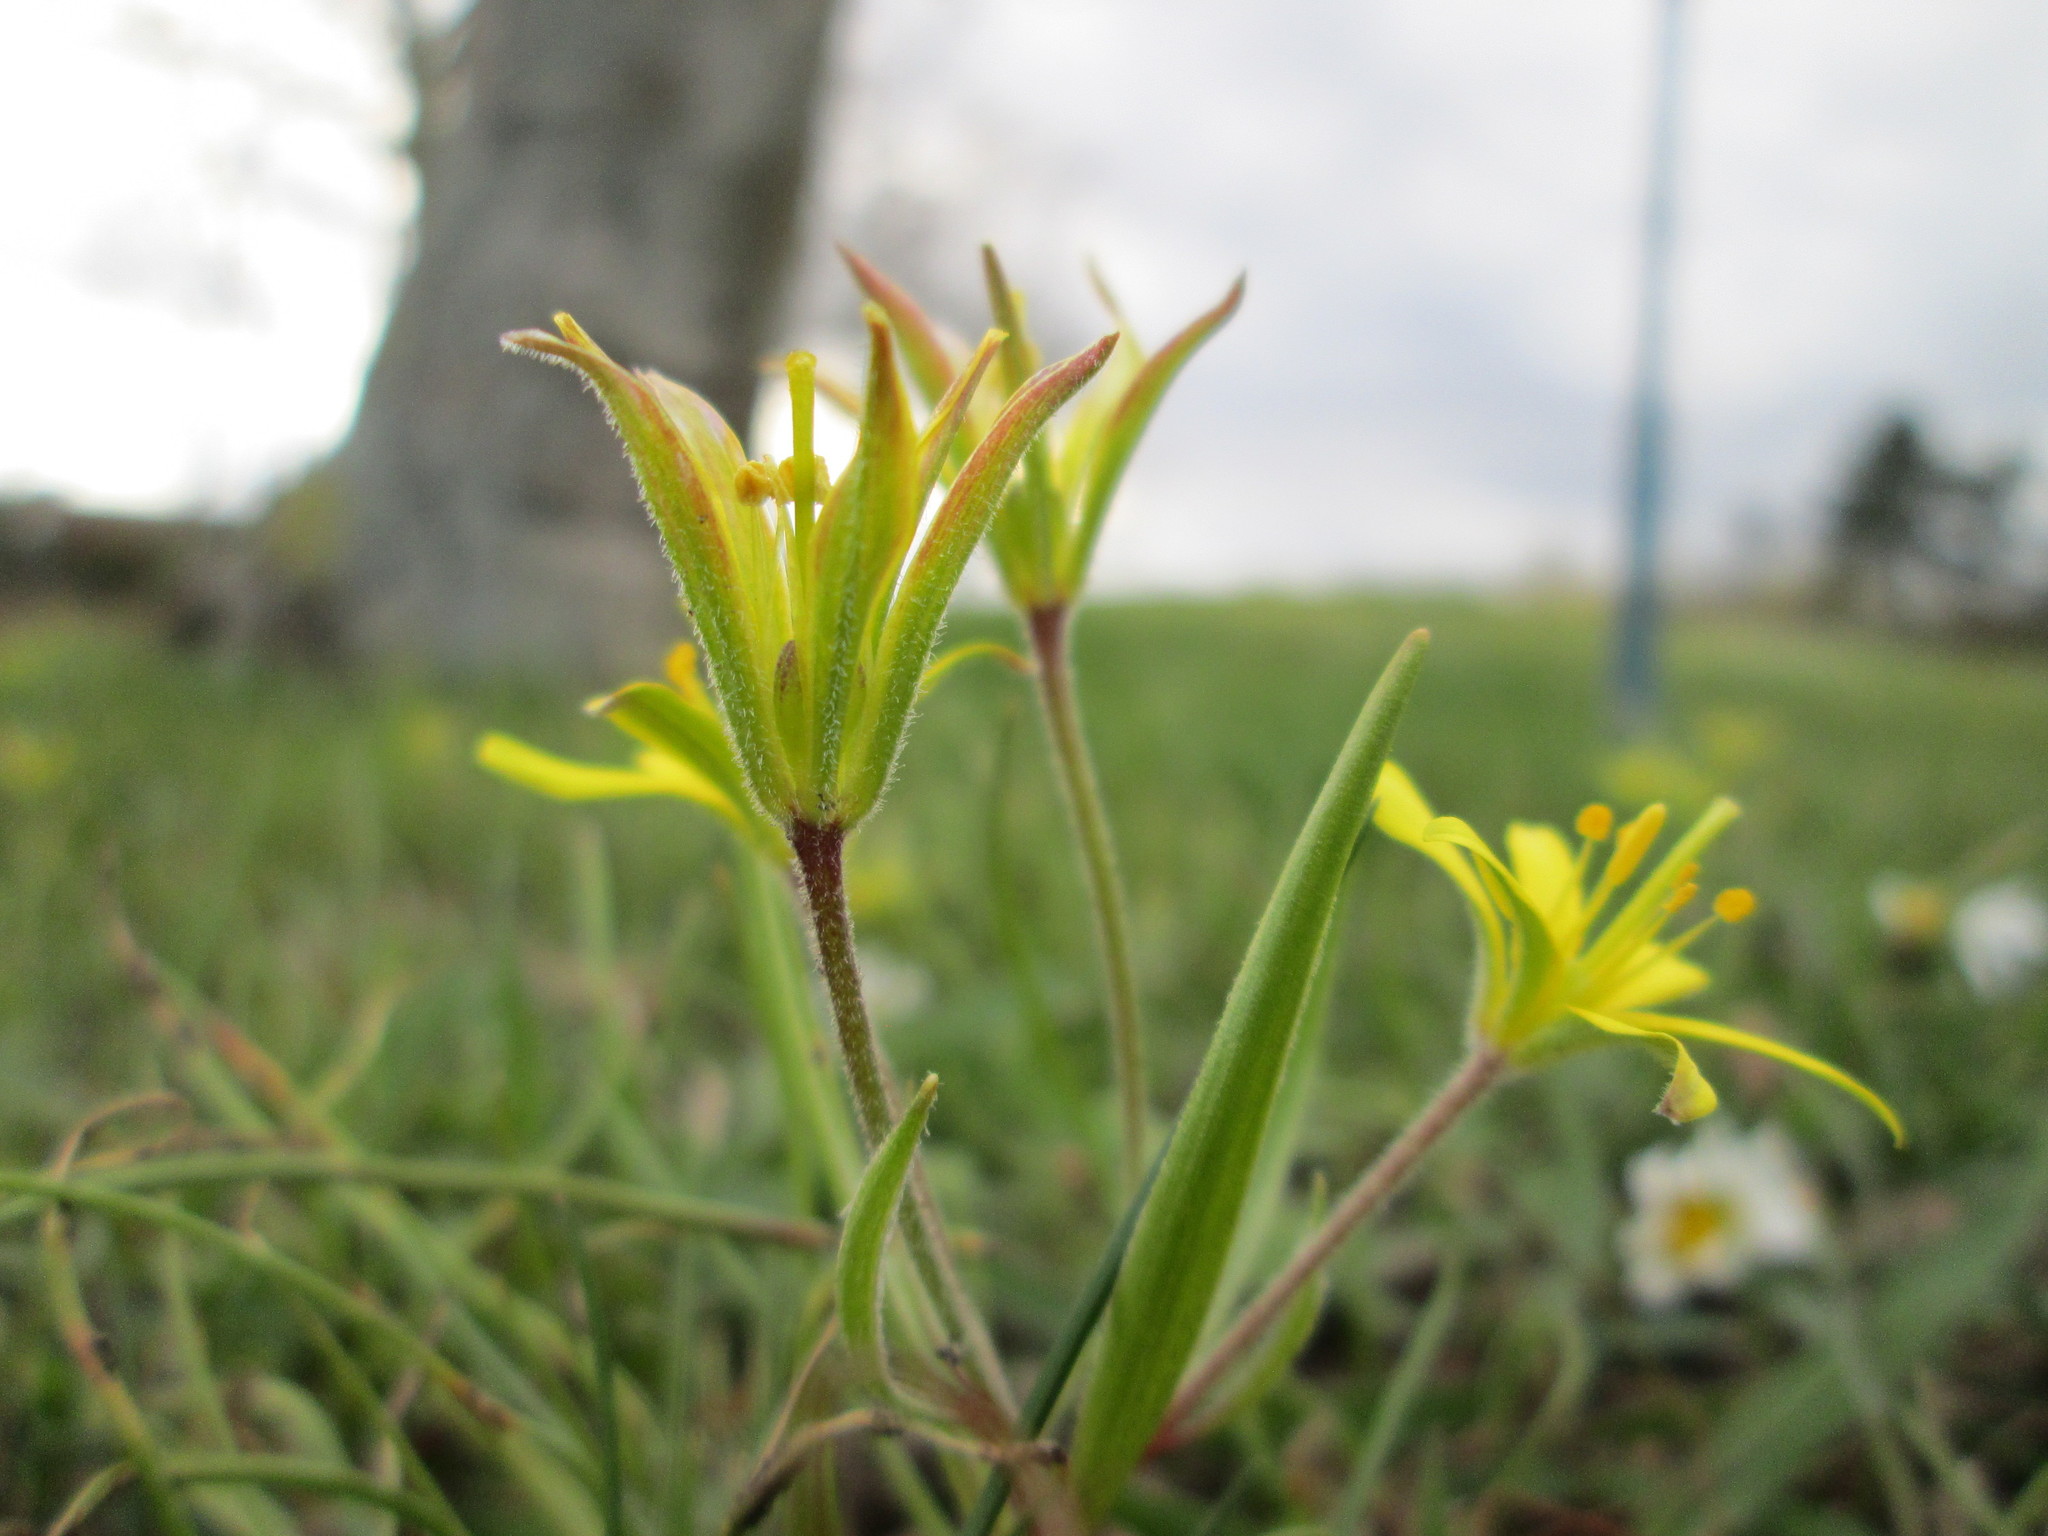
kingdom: Plantae
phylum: Tracheophyta
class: Liliopsida
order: Liliales
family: Liliaceae
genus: Gagea
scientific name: Gagea villosa
